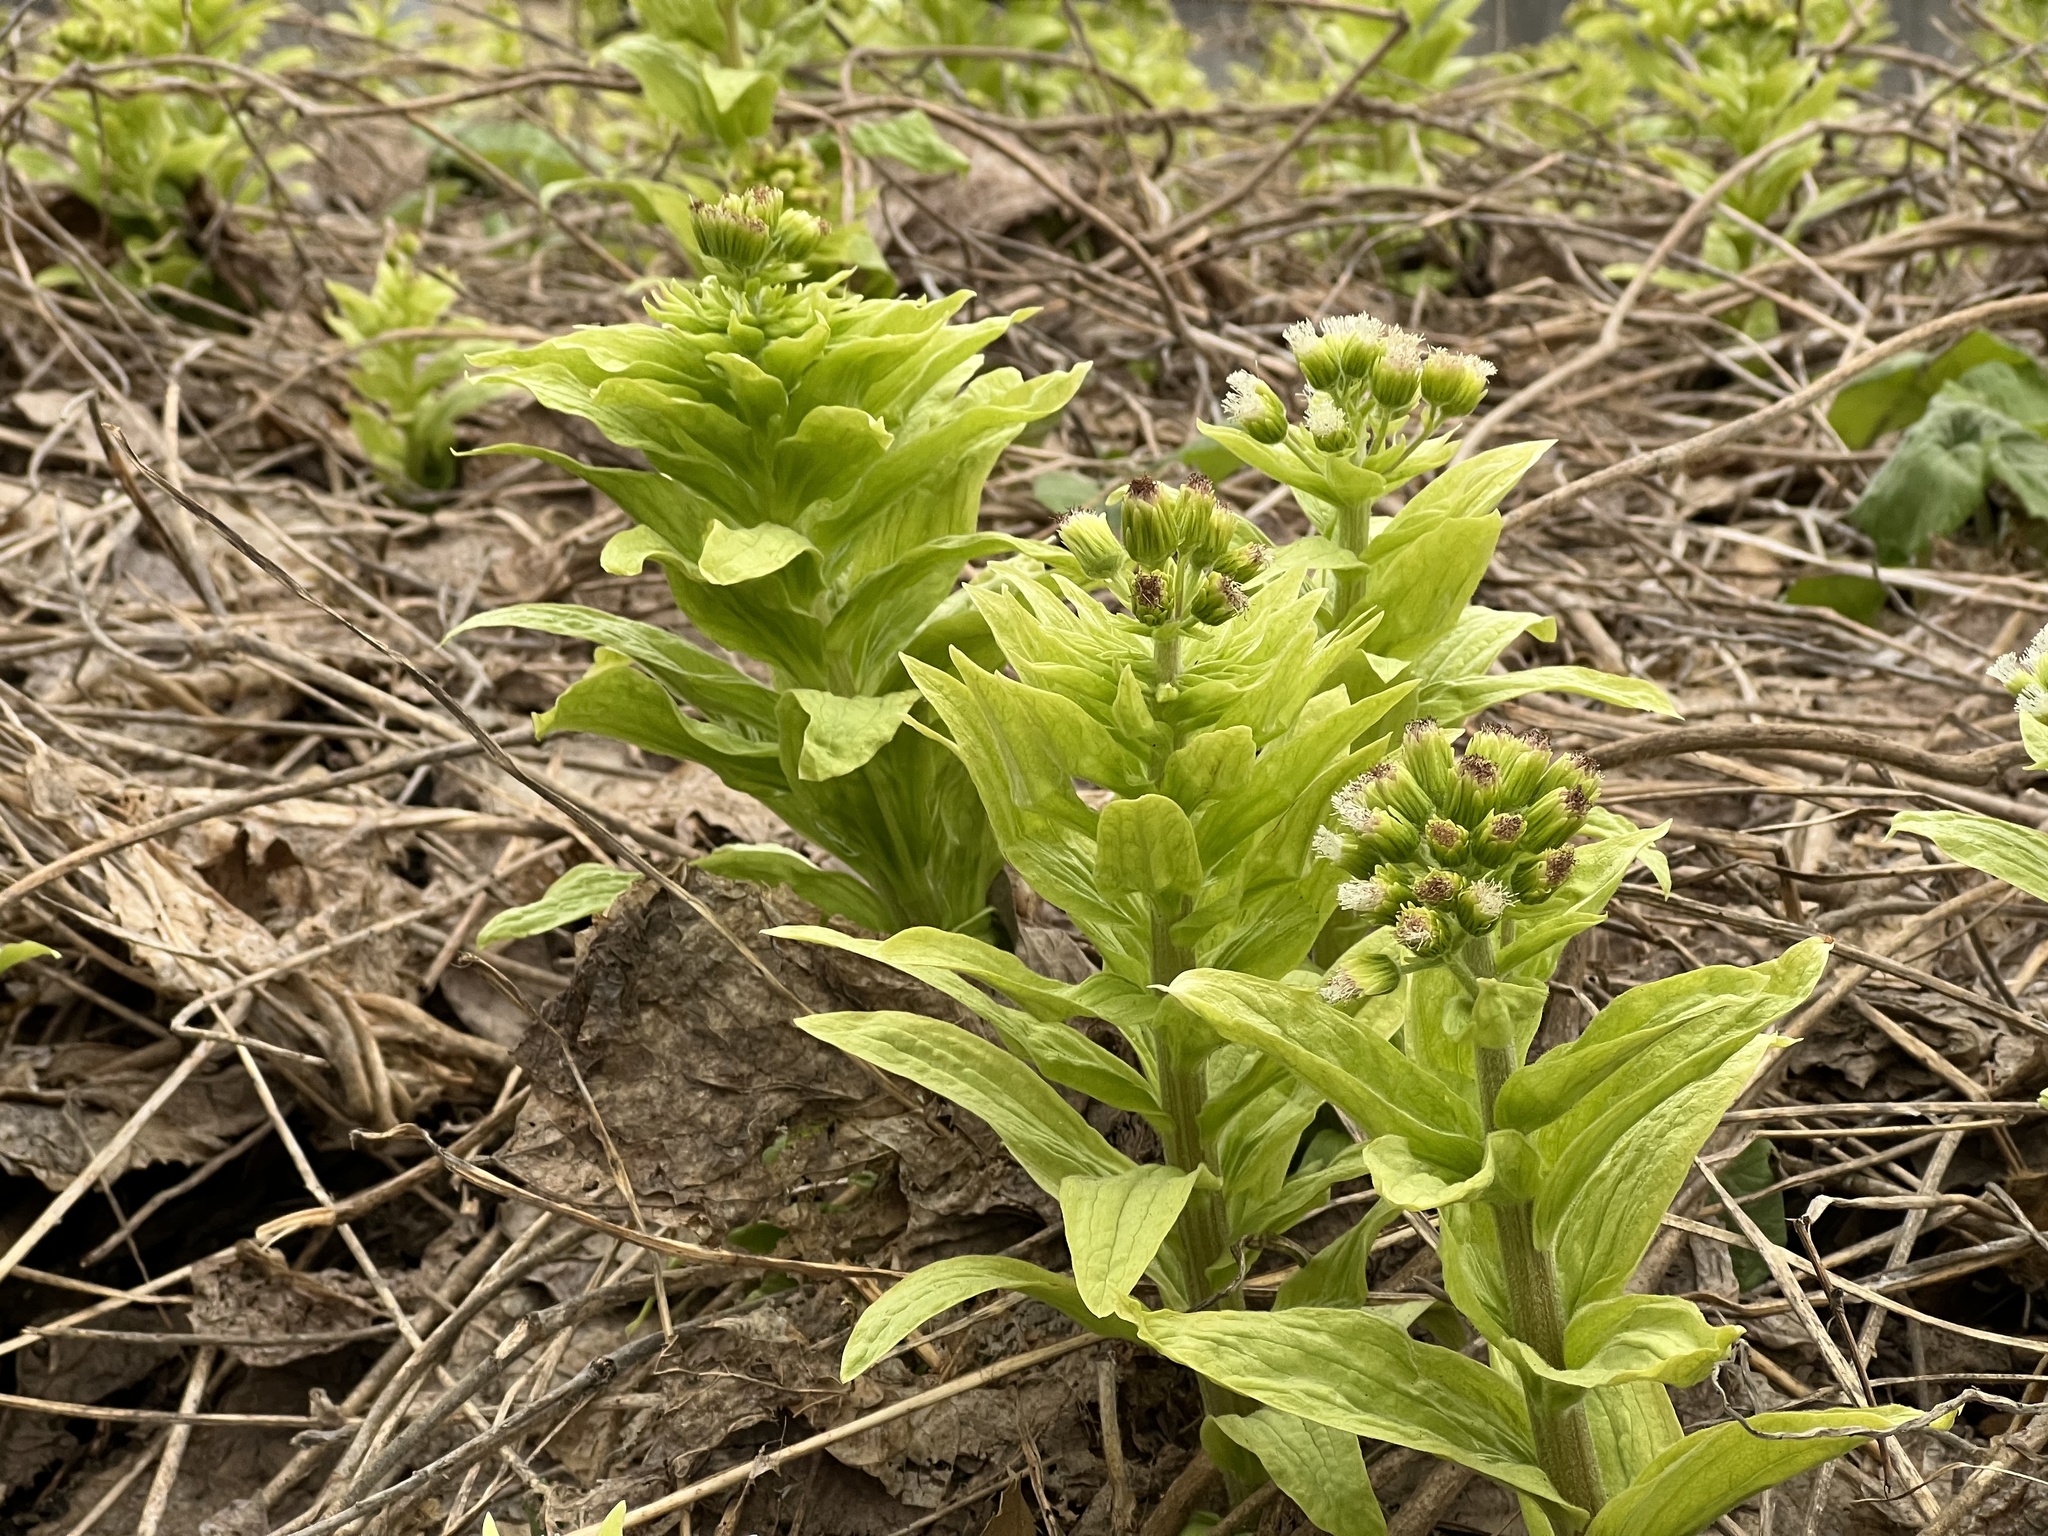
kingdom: Plantae
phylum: Tracheophyta
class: Magnoliopsida
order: Asterales
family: Asteraceae
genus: Petasites
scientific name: Petasites japonicus
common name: Giant butterbur
